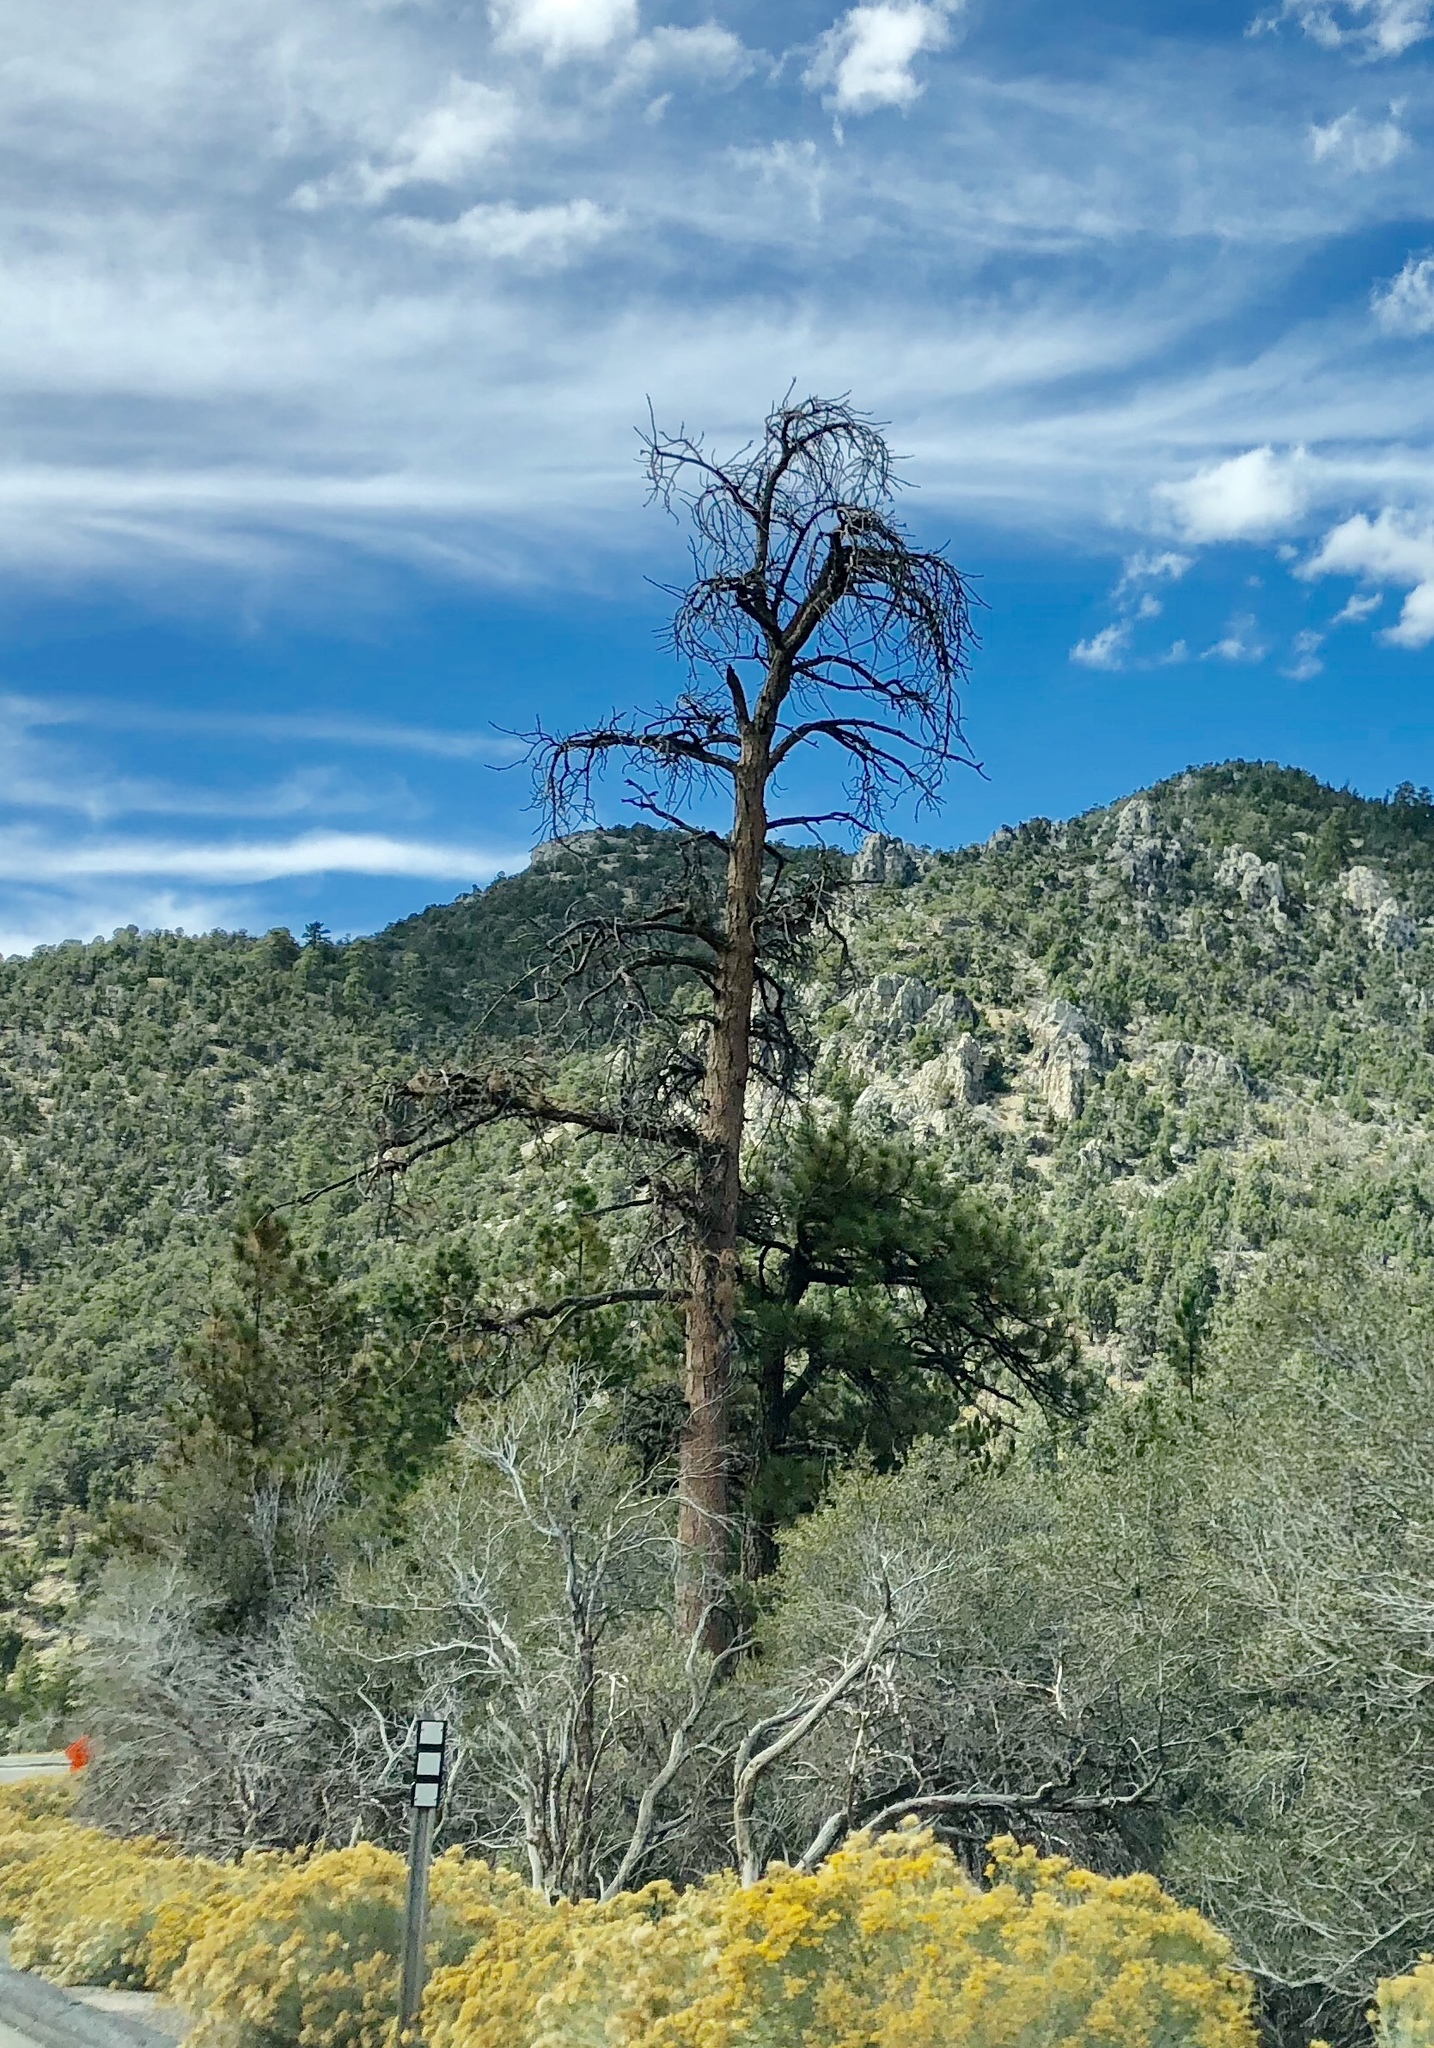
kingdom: Plantae
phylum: Tracheophyta
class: Pinopsida
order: Pinales
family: Pinaceae
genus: Pinus
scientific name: Pinus ponderosa
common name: Western yellow-pine
